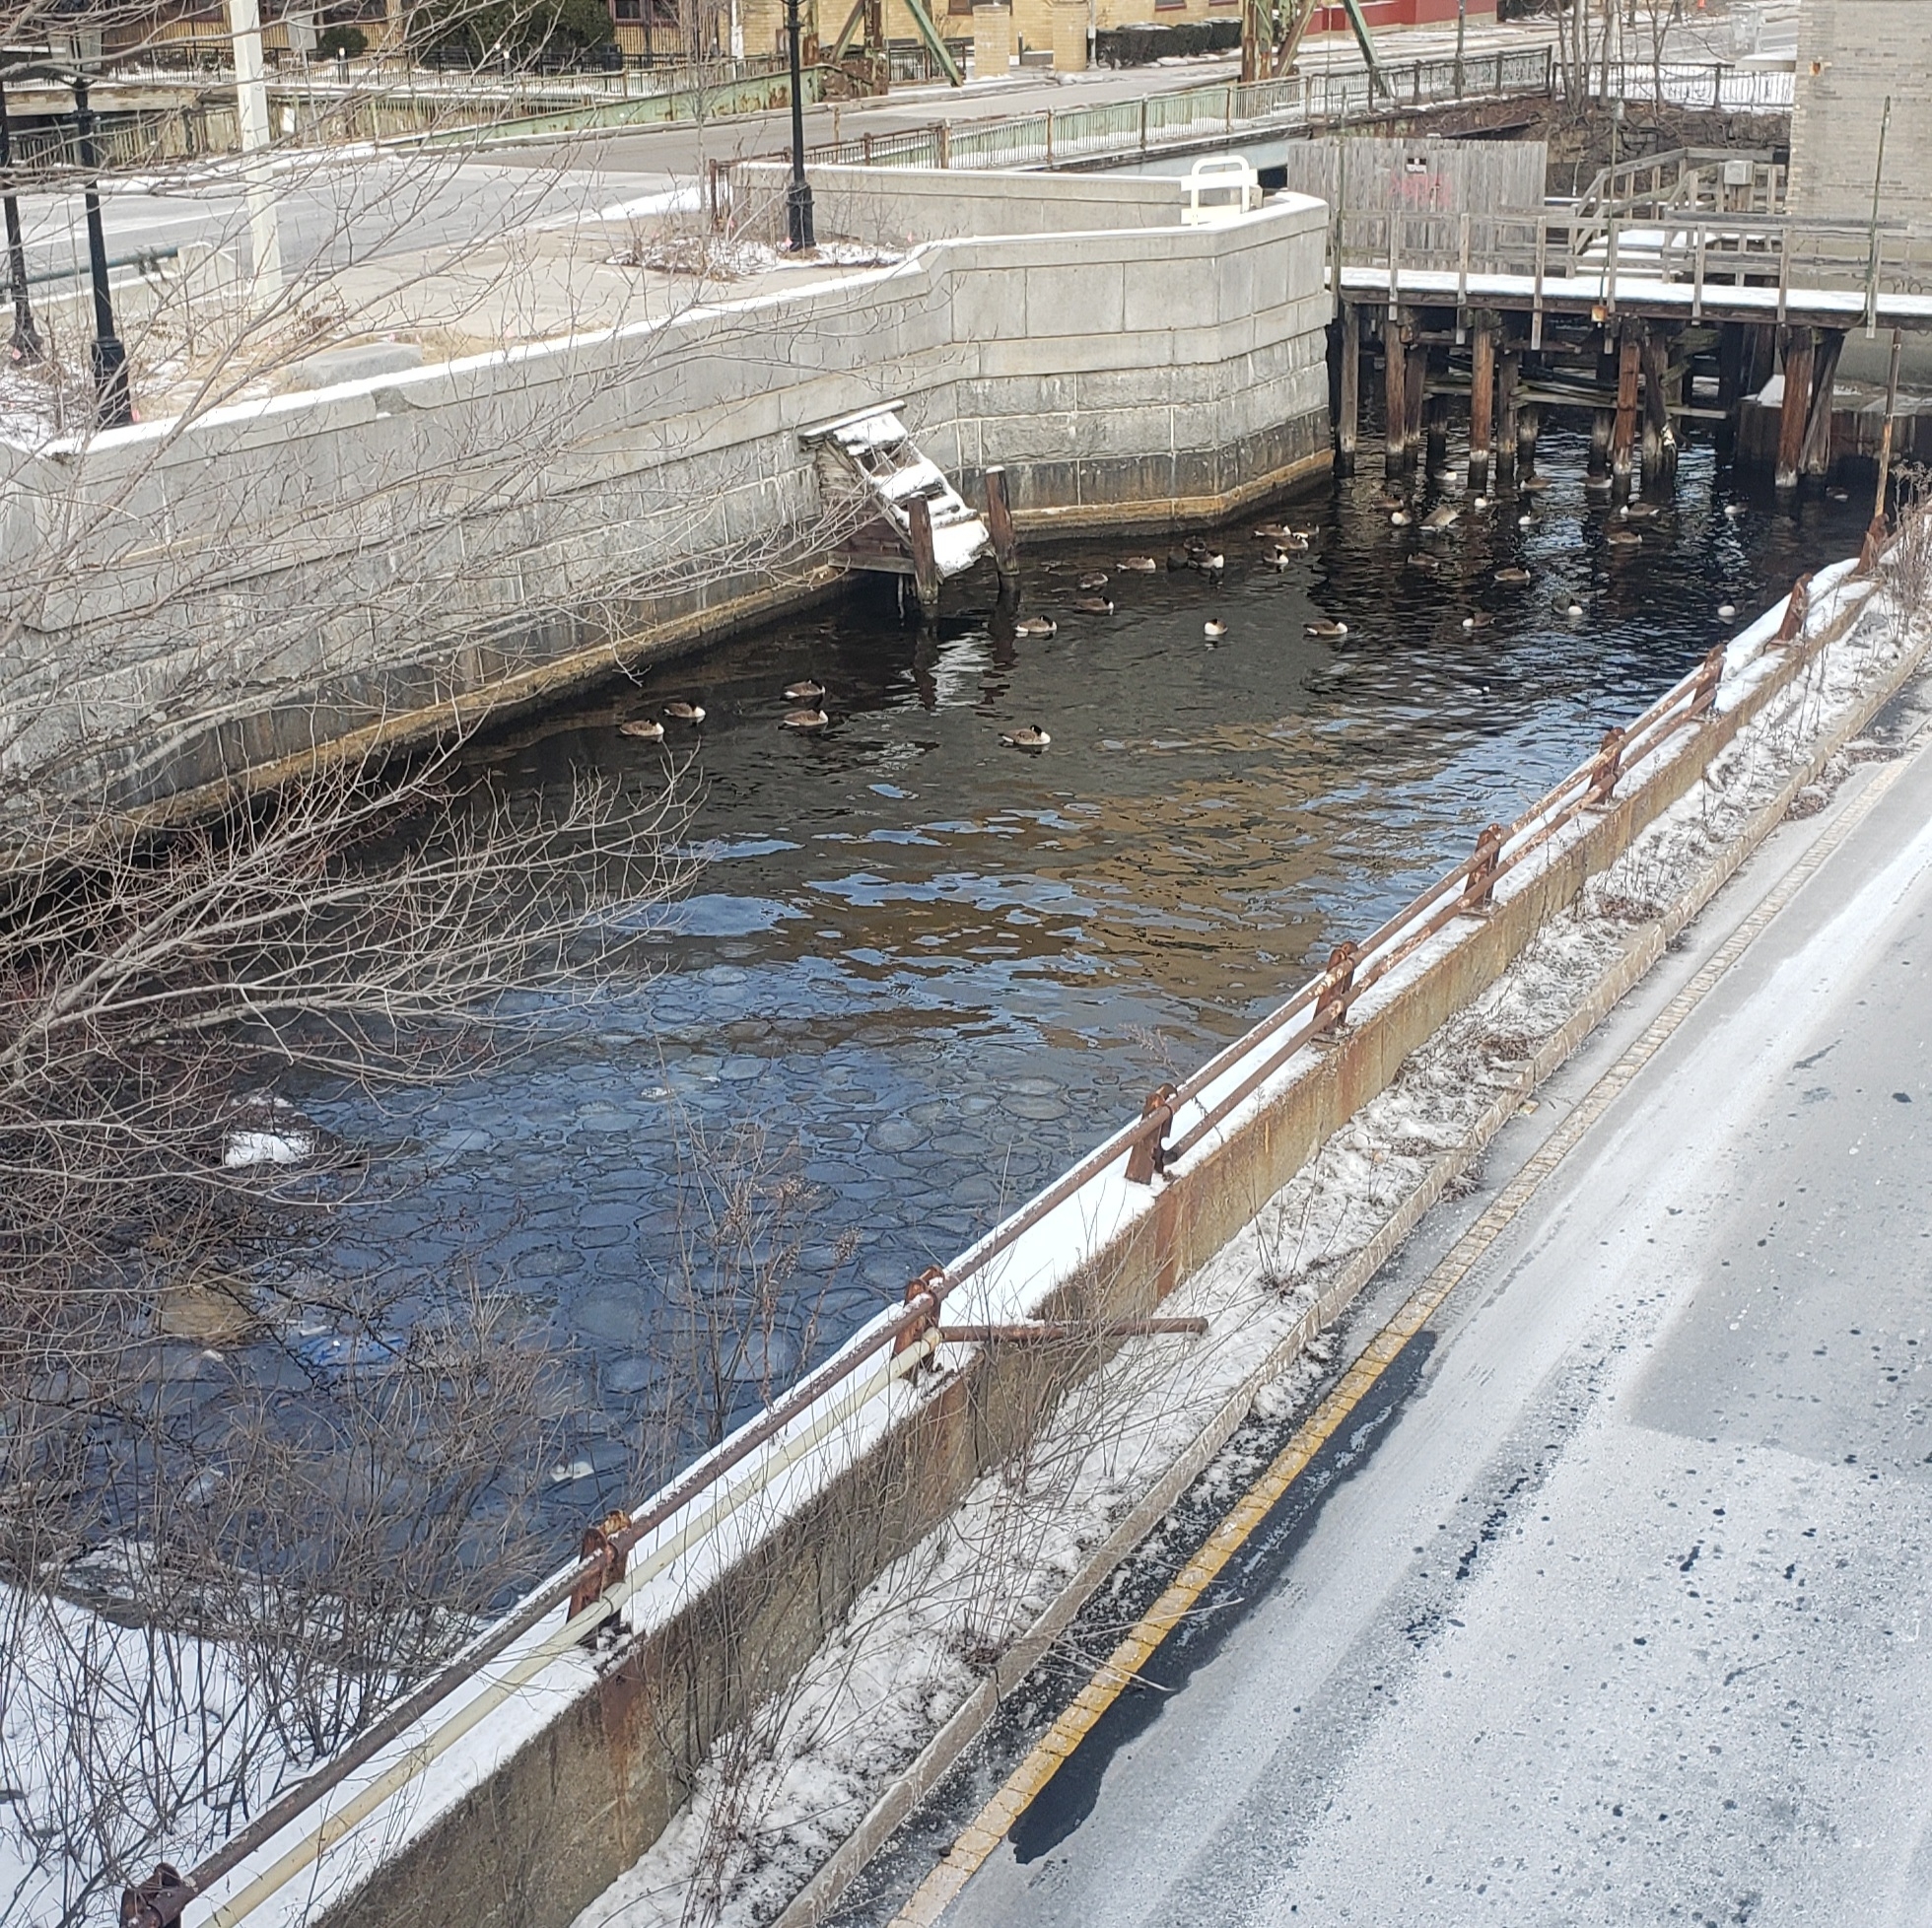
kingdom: Animalia
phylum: Chordata
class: Aves
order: Anseriformes
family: Anatidae
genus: Branta
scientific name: Branta canadensis
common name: Canada goose
